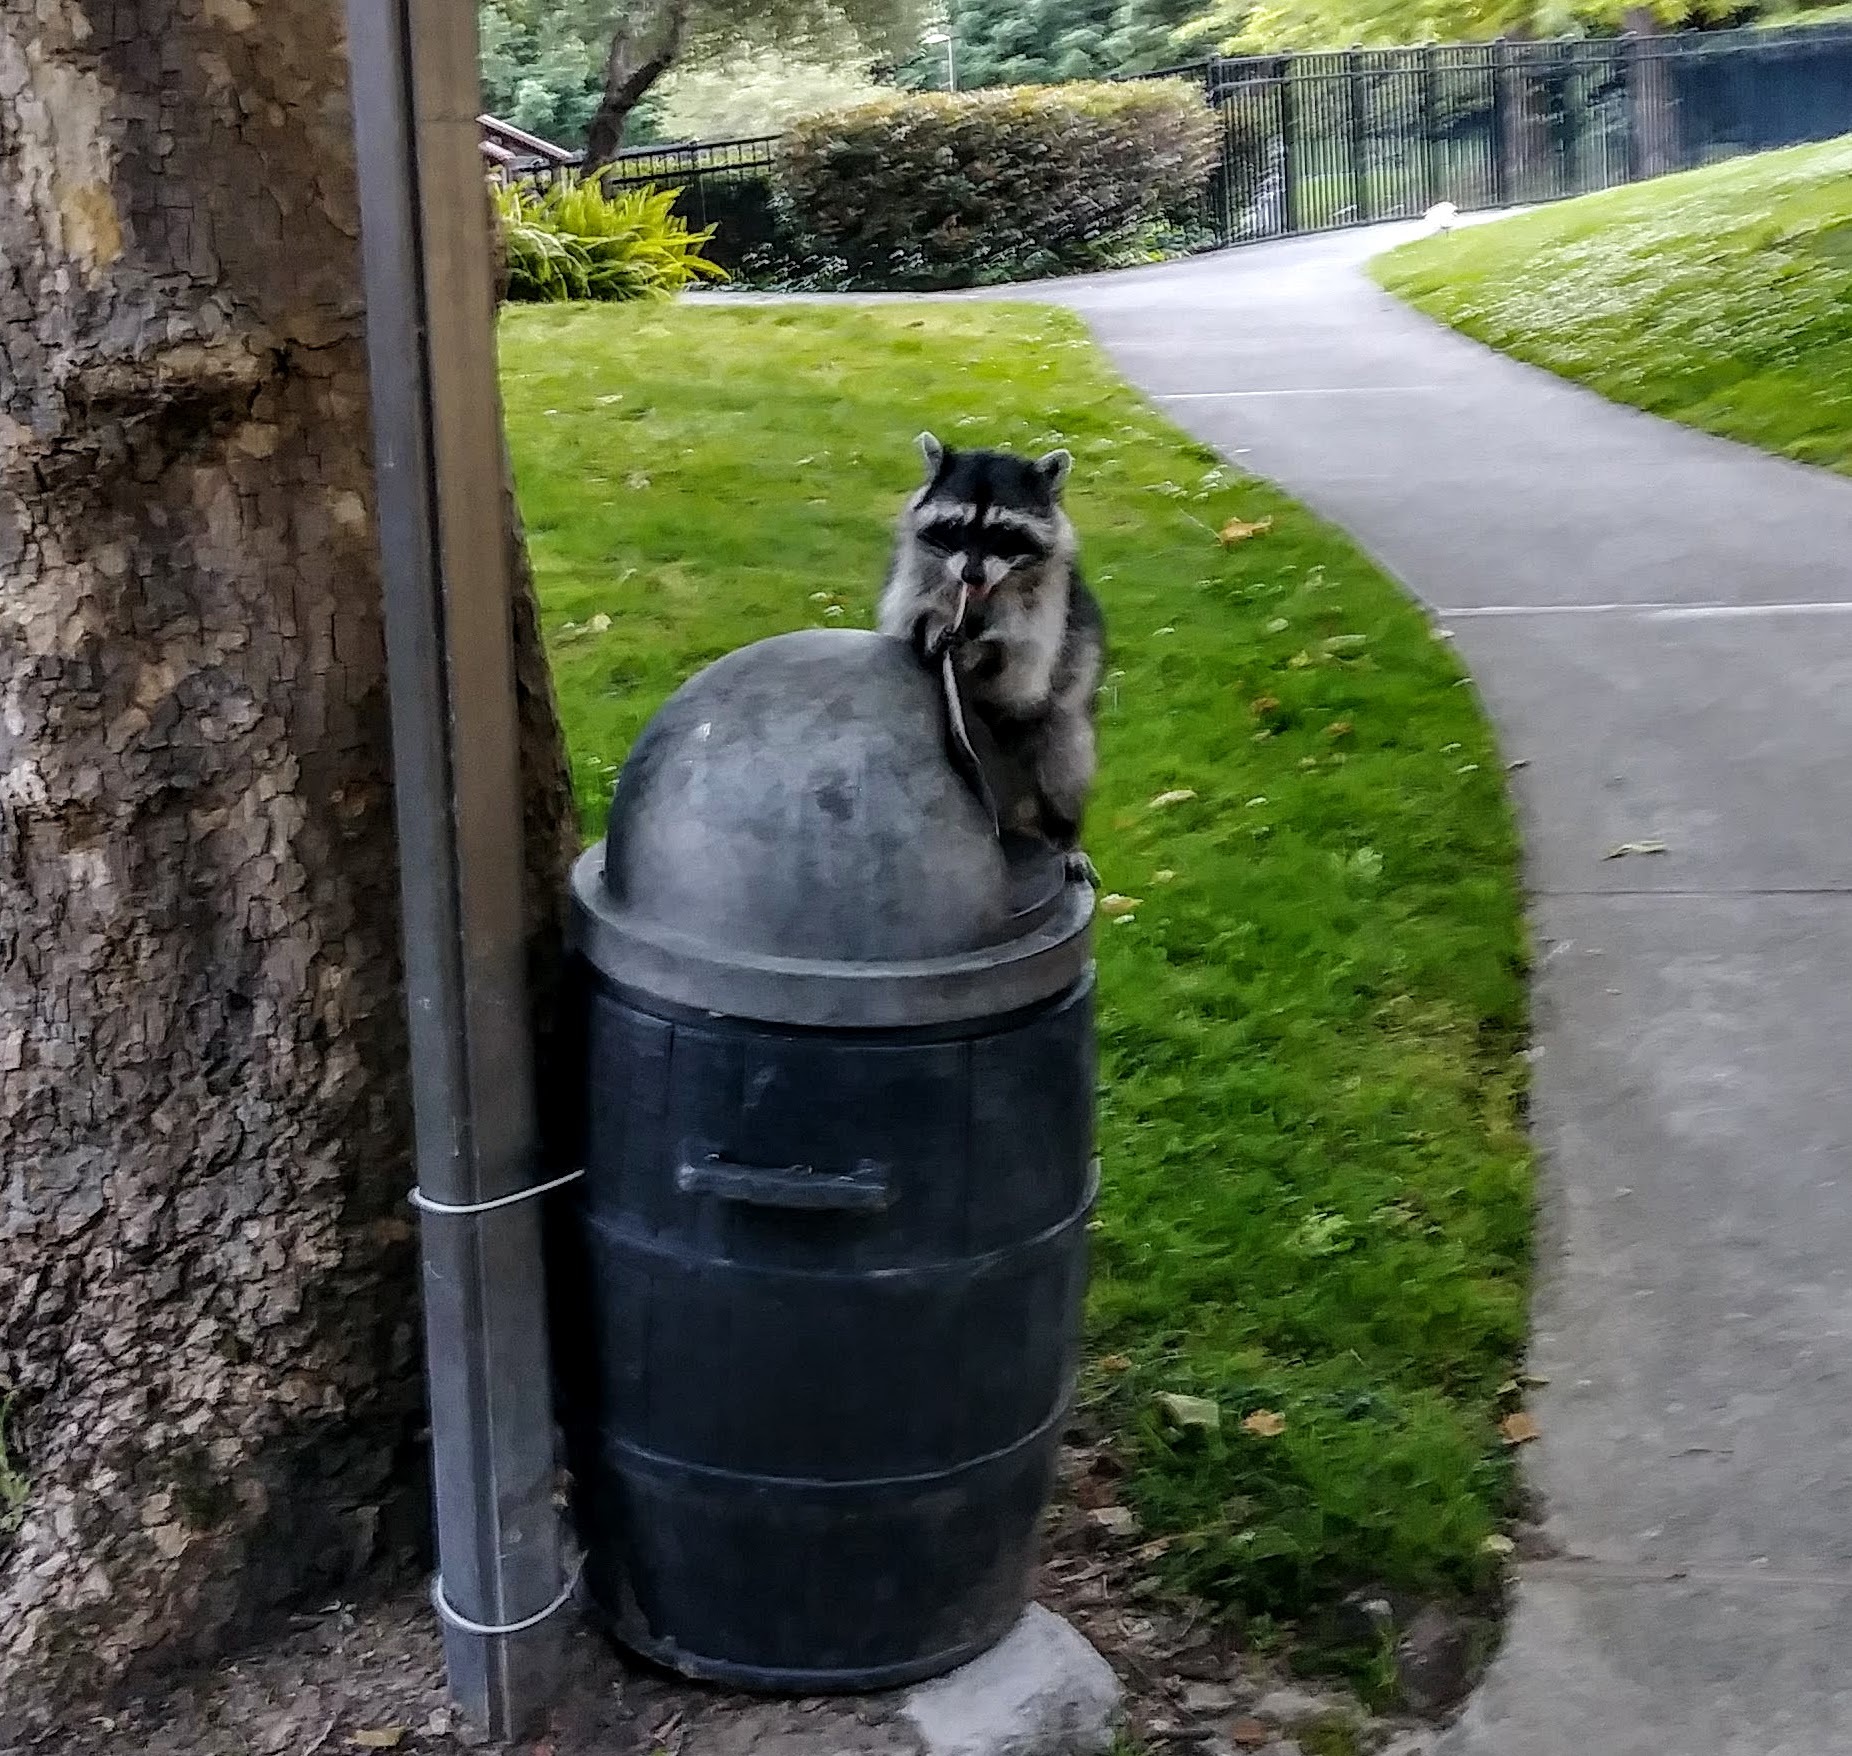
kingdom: Animalia
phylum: Chordata
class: Mammalia
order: Carnivora
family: Procyonidae
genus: Procyon
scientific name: Procyon lotor
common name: Raccoon
